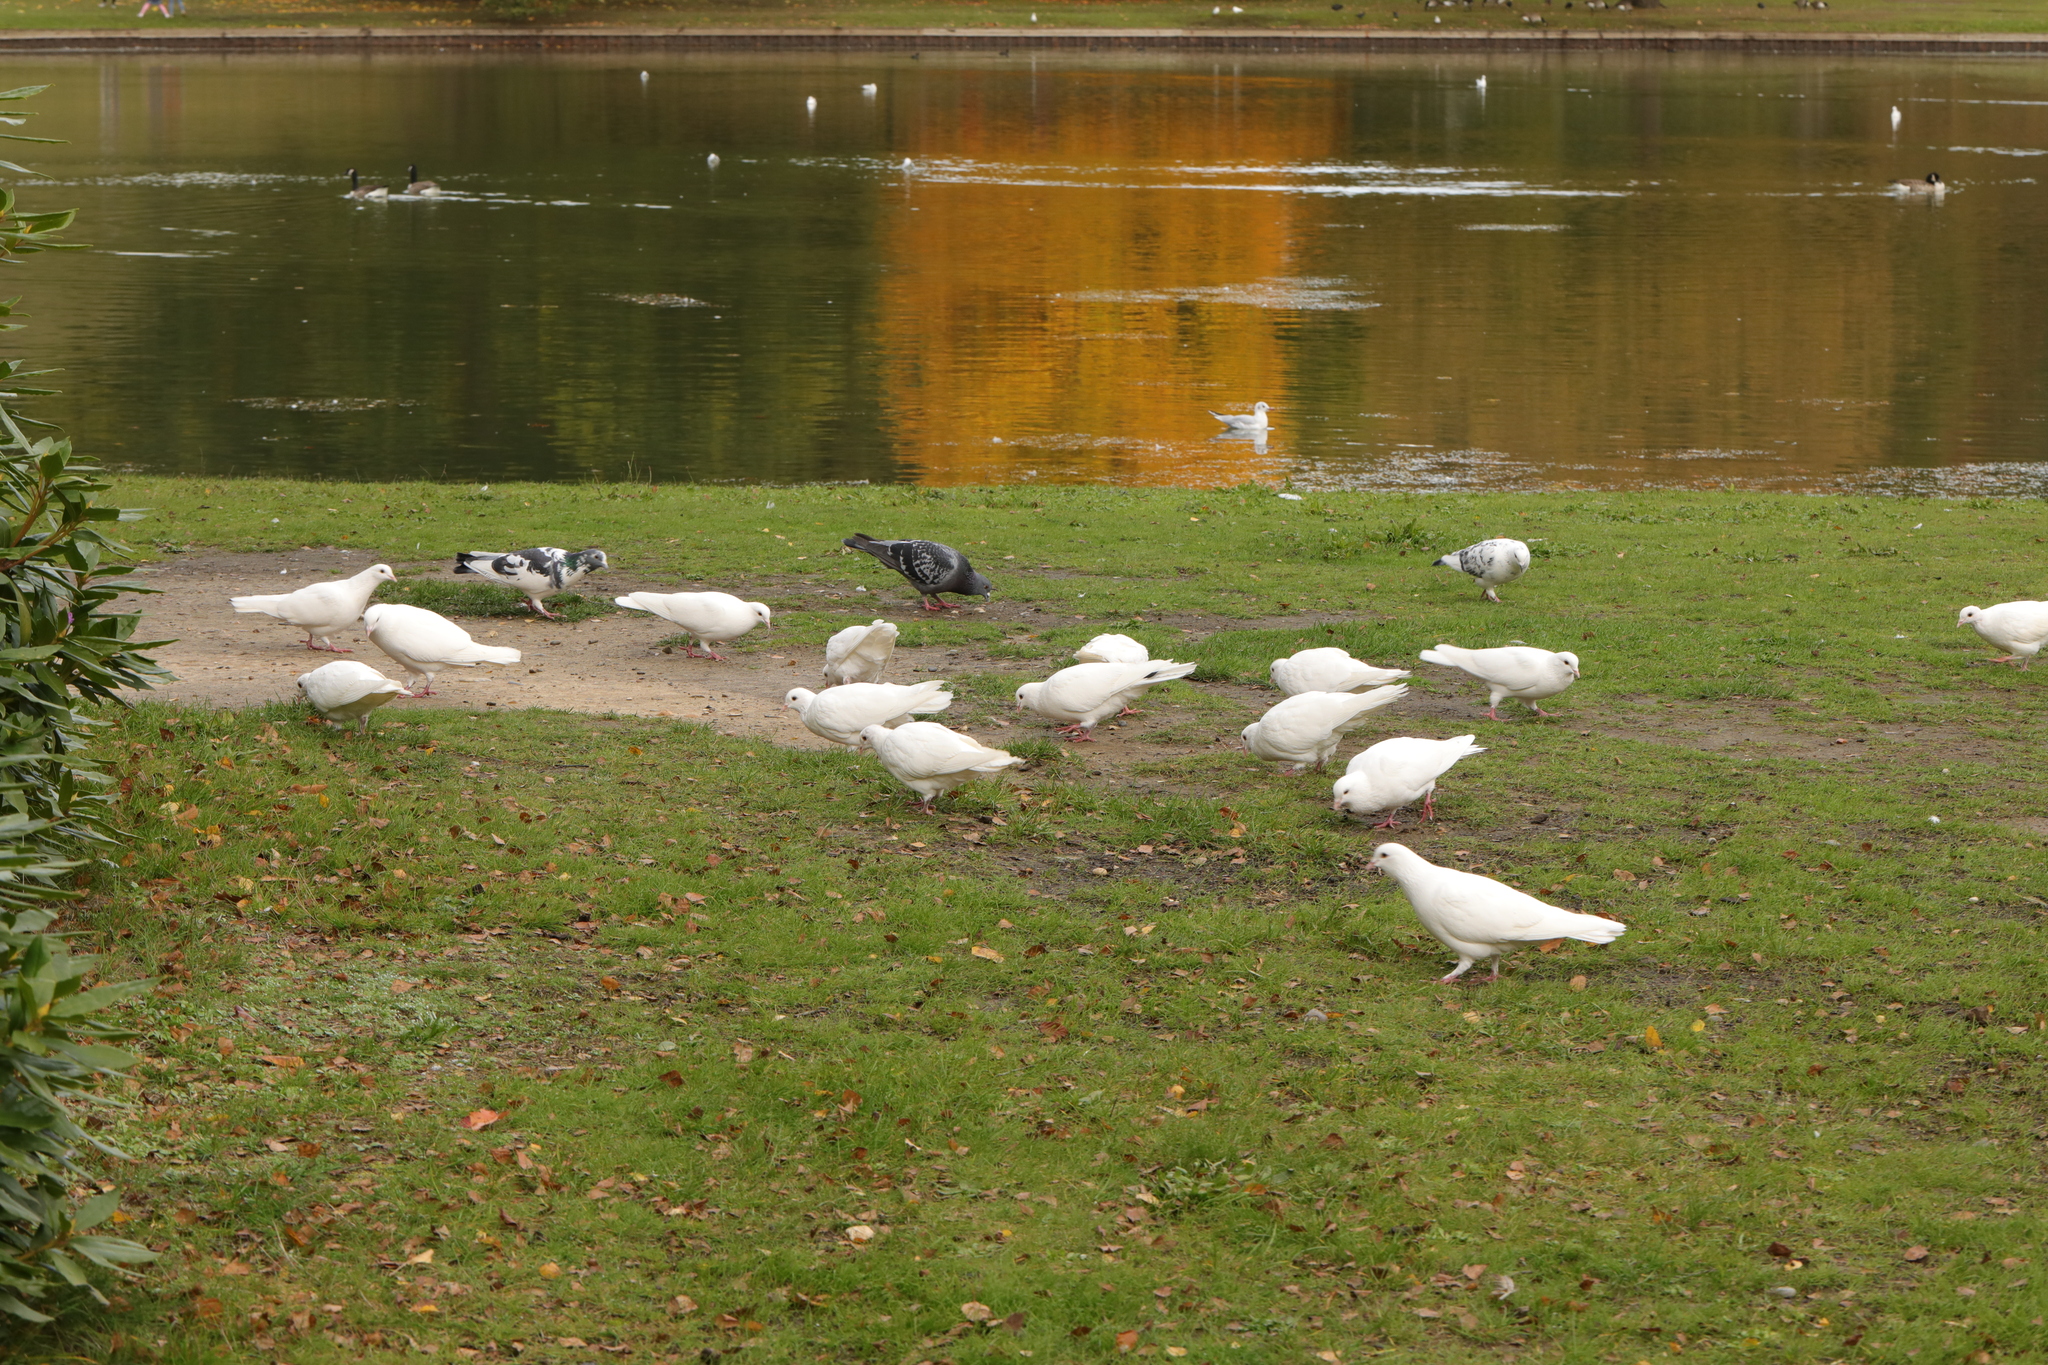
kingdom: Animalia
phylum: Chordata
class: Aves
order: Columbiformes
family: Columbidae
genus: Columba
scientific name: Columba livia
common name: Rock pigeon
